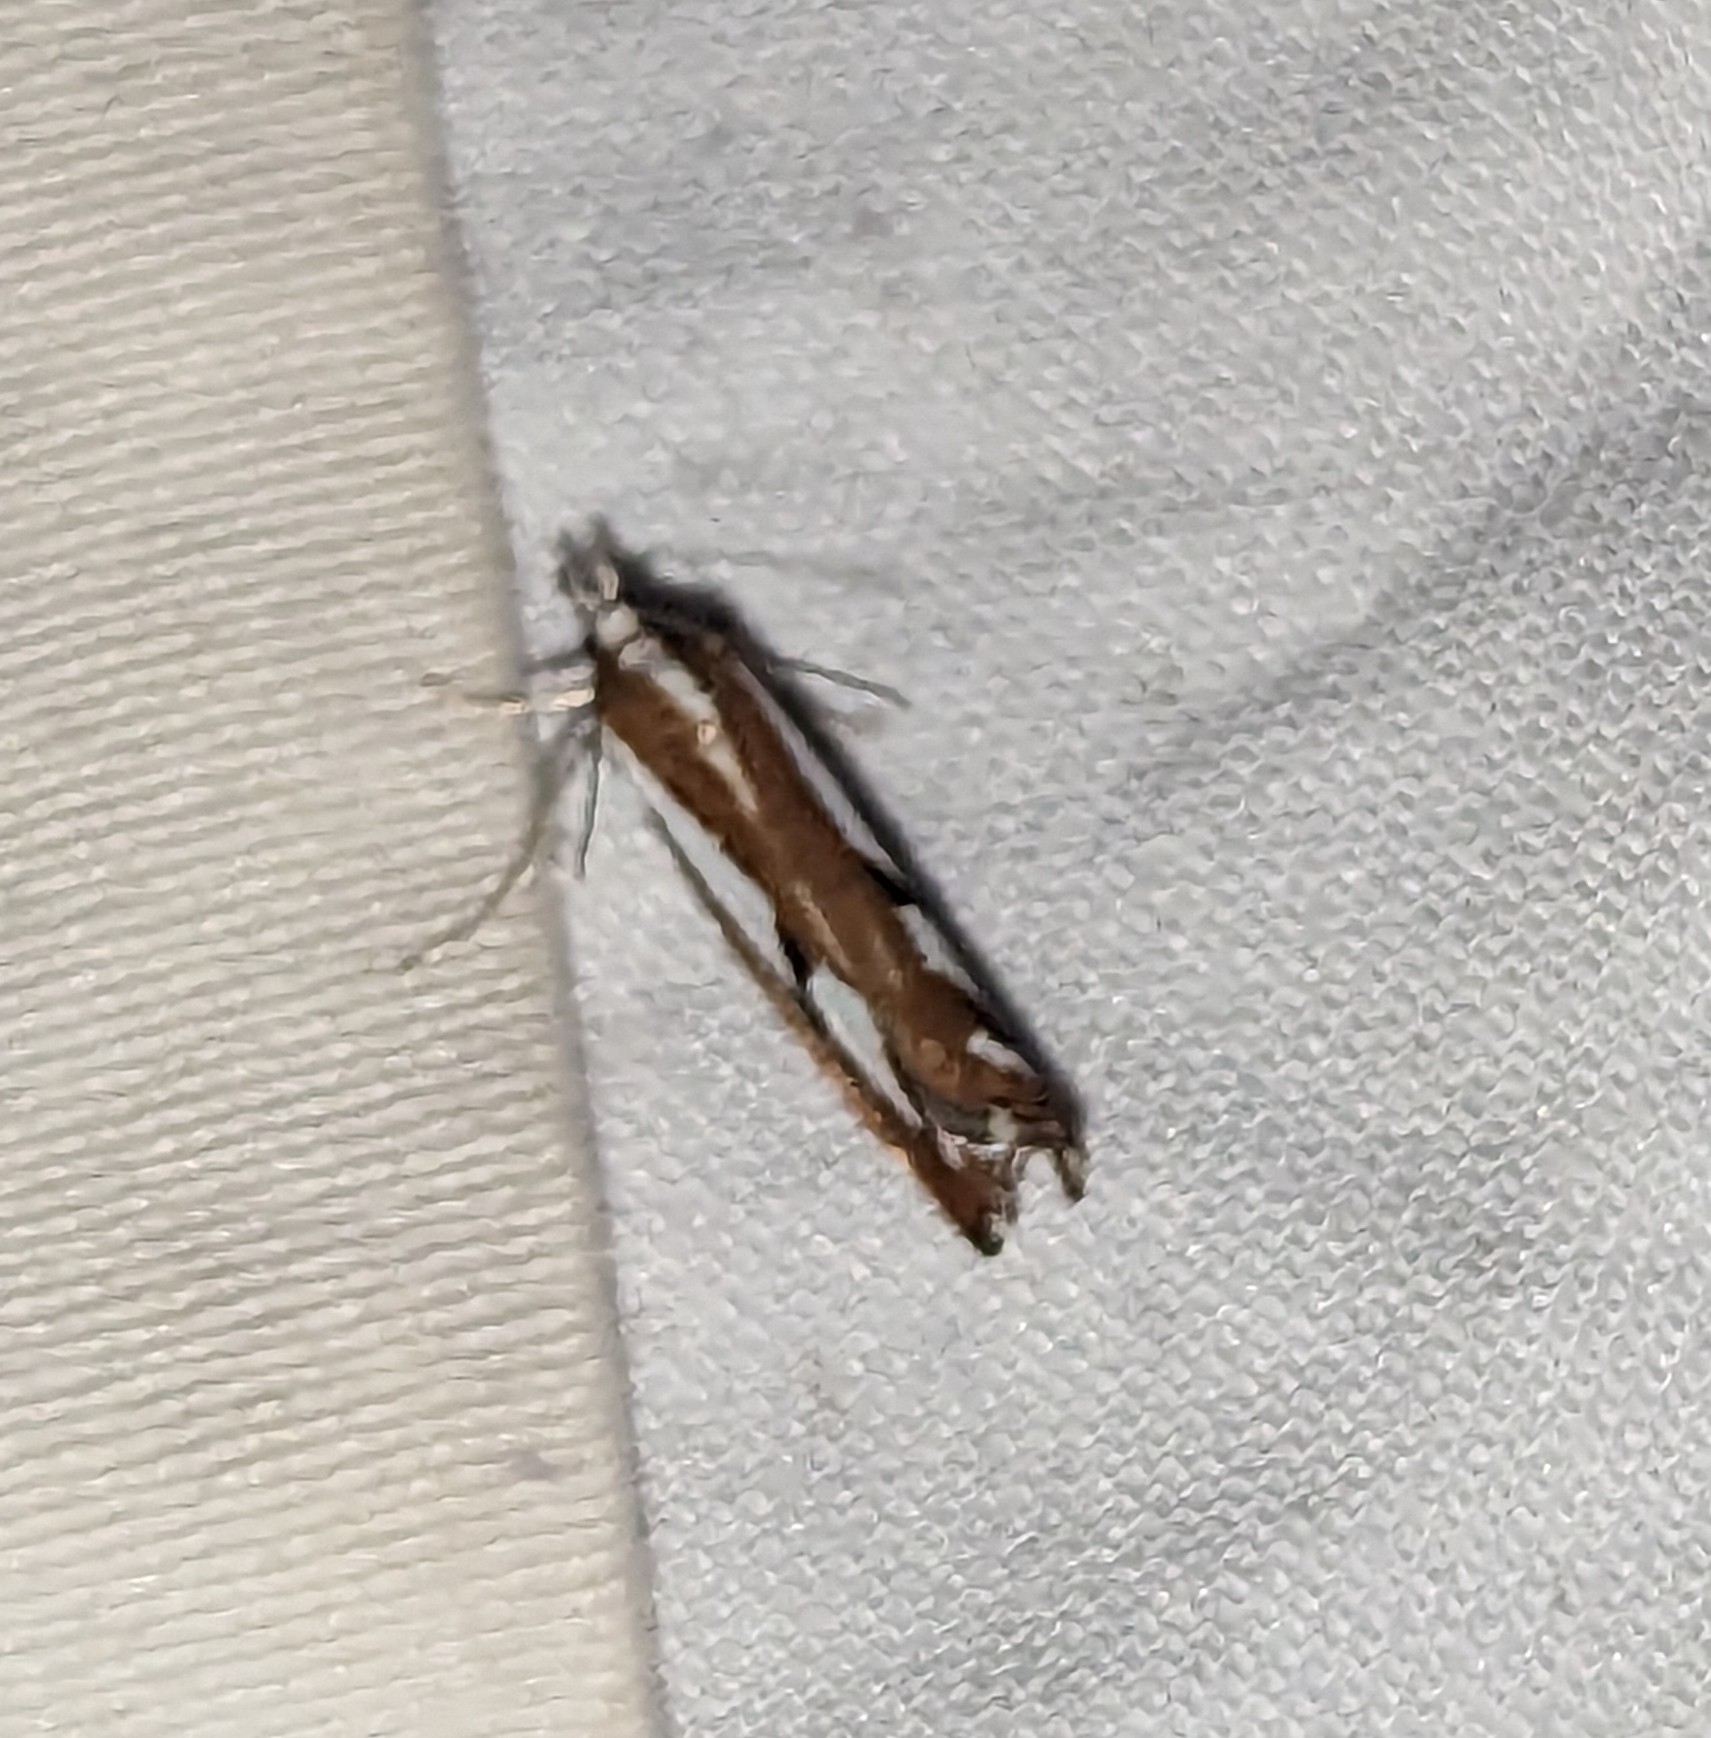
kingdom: Animalia
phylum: Arthropoda
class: Insecta
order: Lepidoptera
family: Crambidae
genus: Catoptria
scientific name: Catoptria latiradiellus
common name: Two-banded catoptria moth
